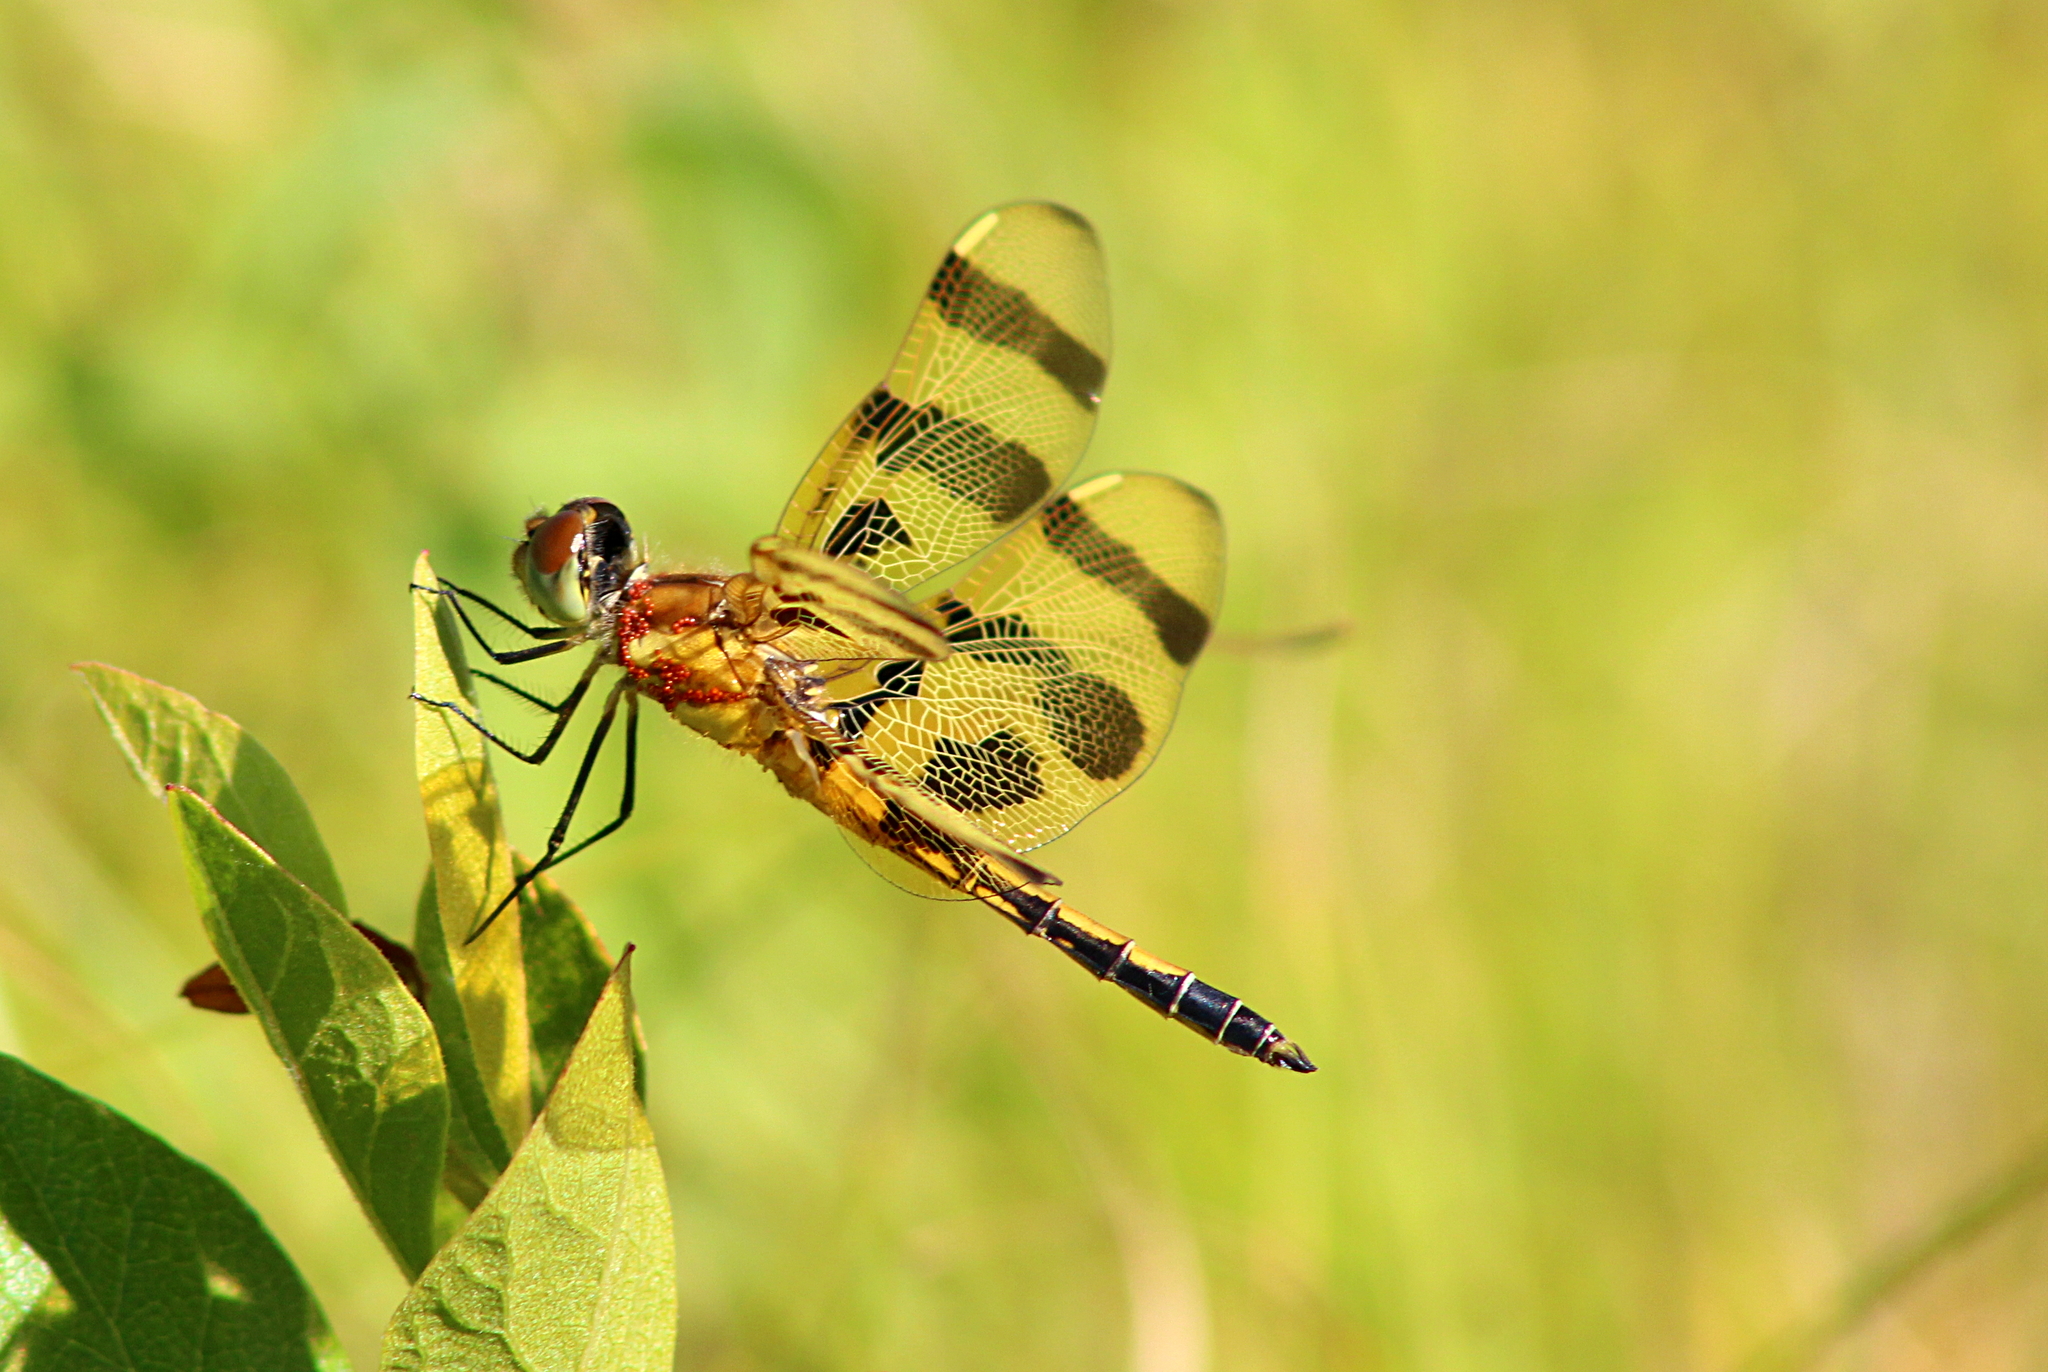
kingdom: Animalia
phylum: Arthropoda
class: Insecta
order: Odonata
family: Libellulidae
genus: Celithemis
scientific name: Celithemis eponina
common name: Halloween pennant
